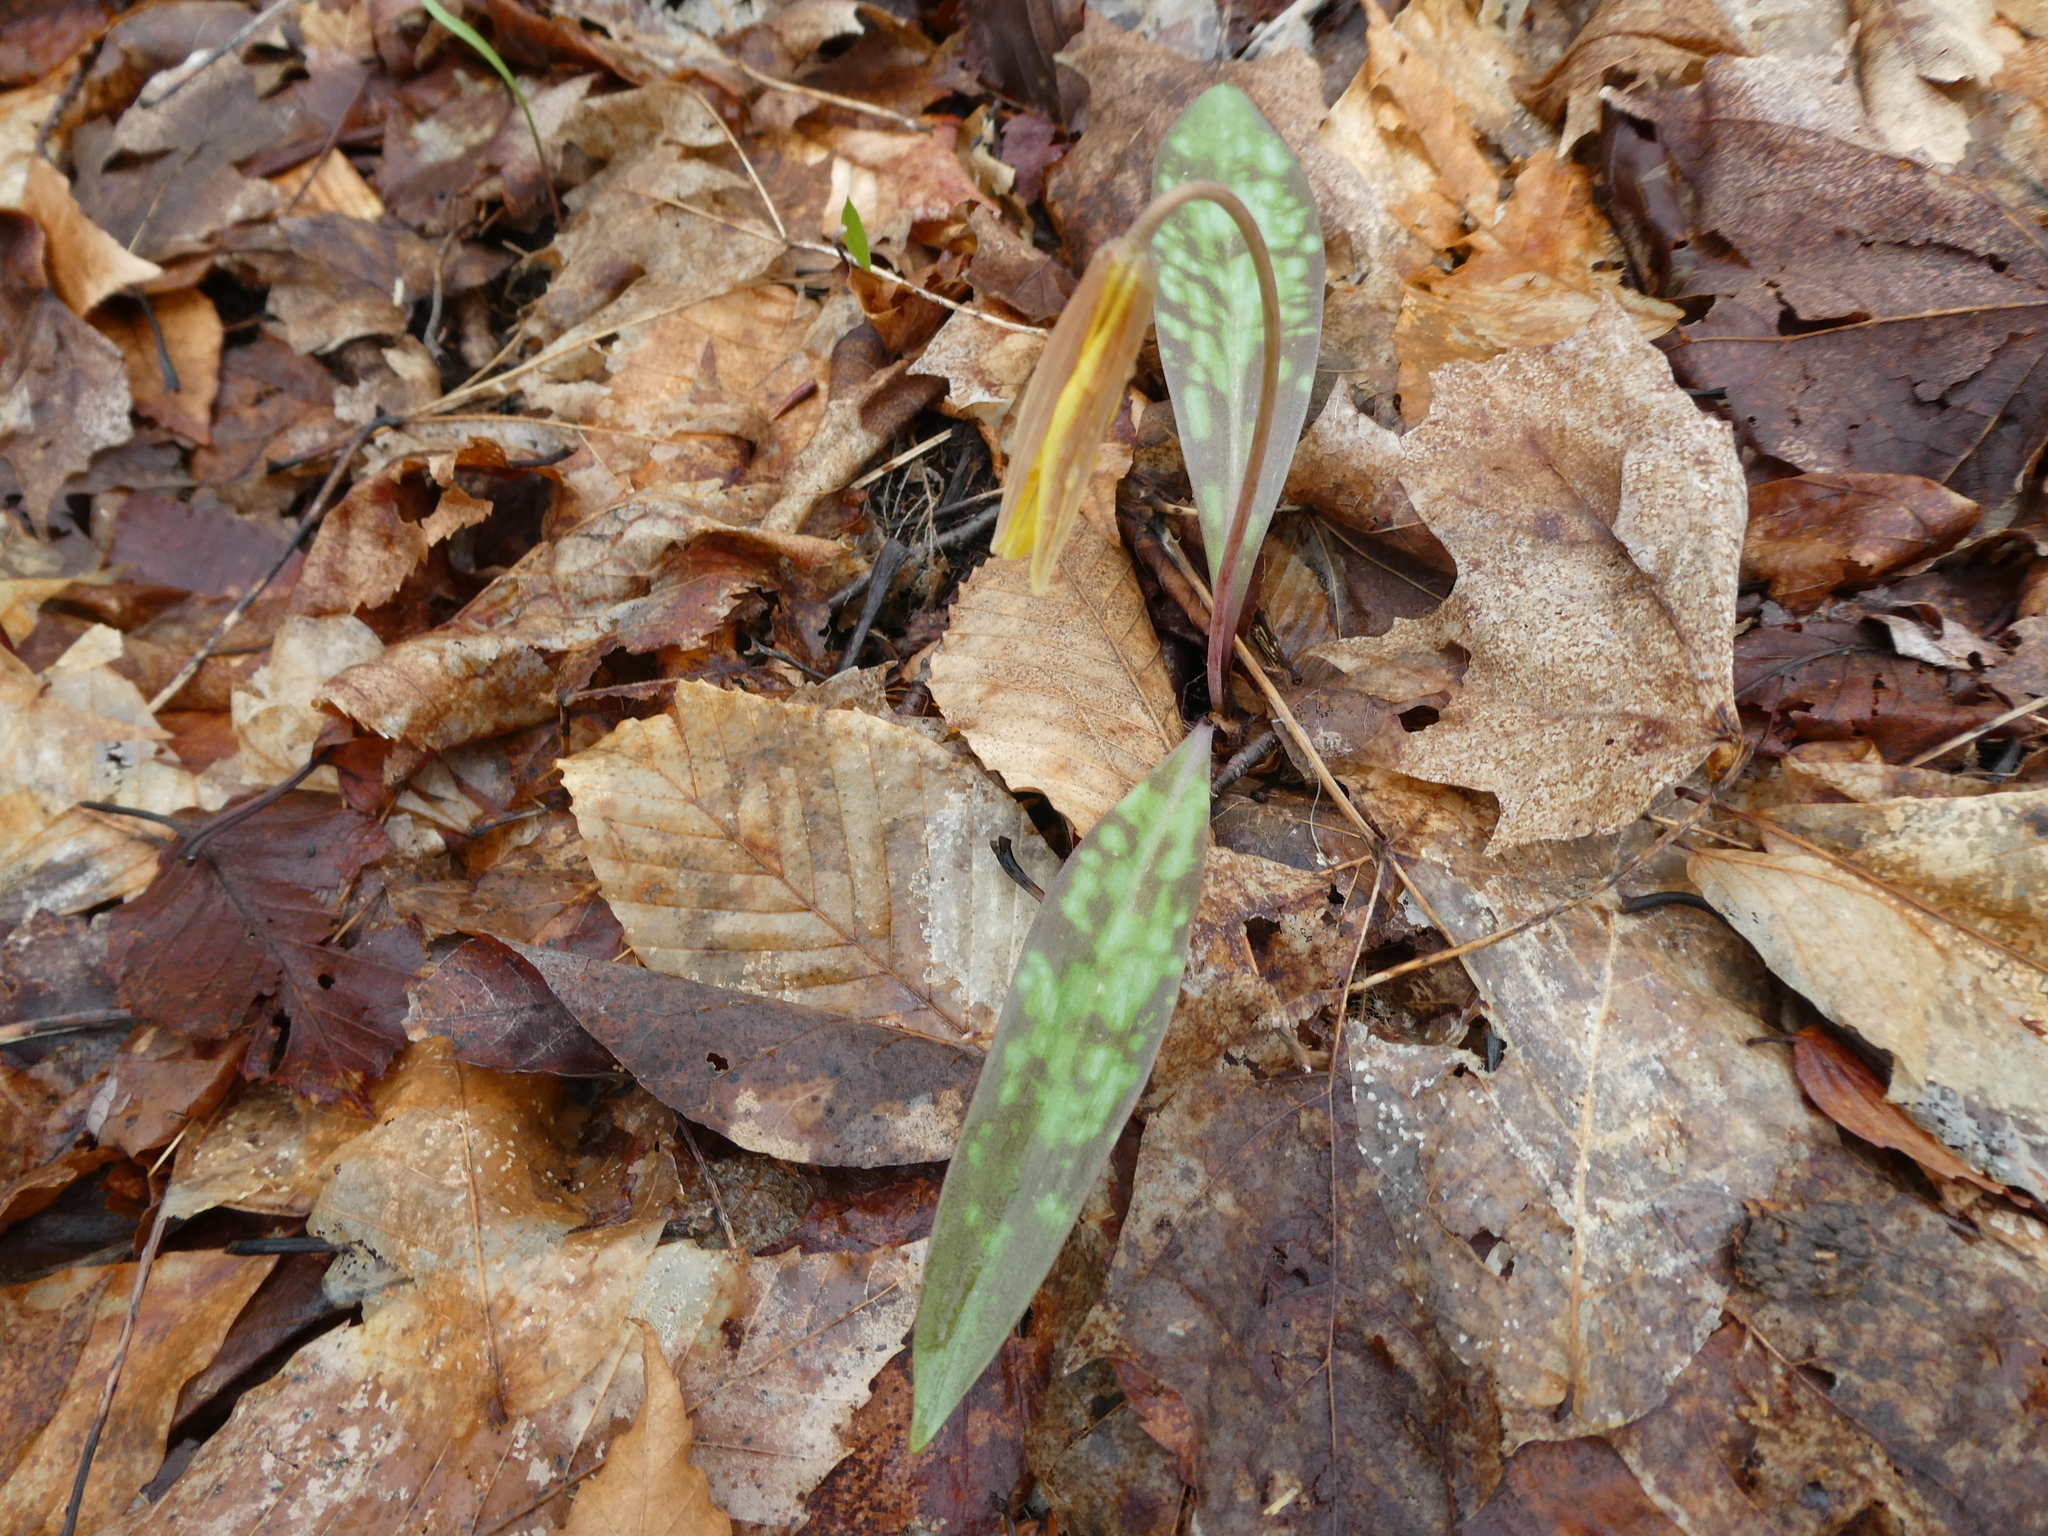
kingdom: Plantae
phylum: Tracheophyta
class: Liliopsida
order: Liliales
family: Liliaceae
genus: Erythronium
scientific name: Erythronium americanum
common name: Yellow adder's-tongue
